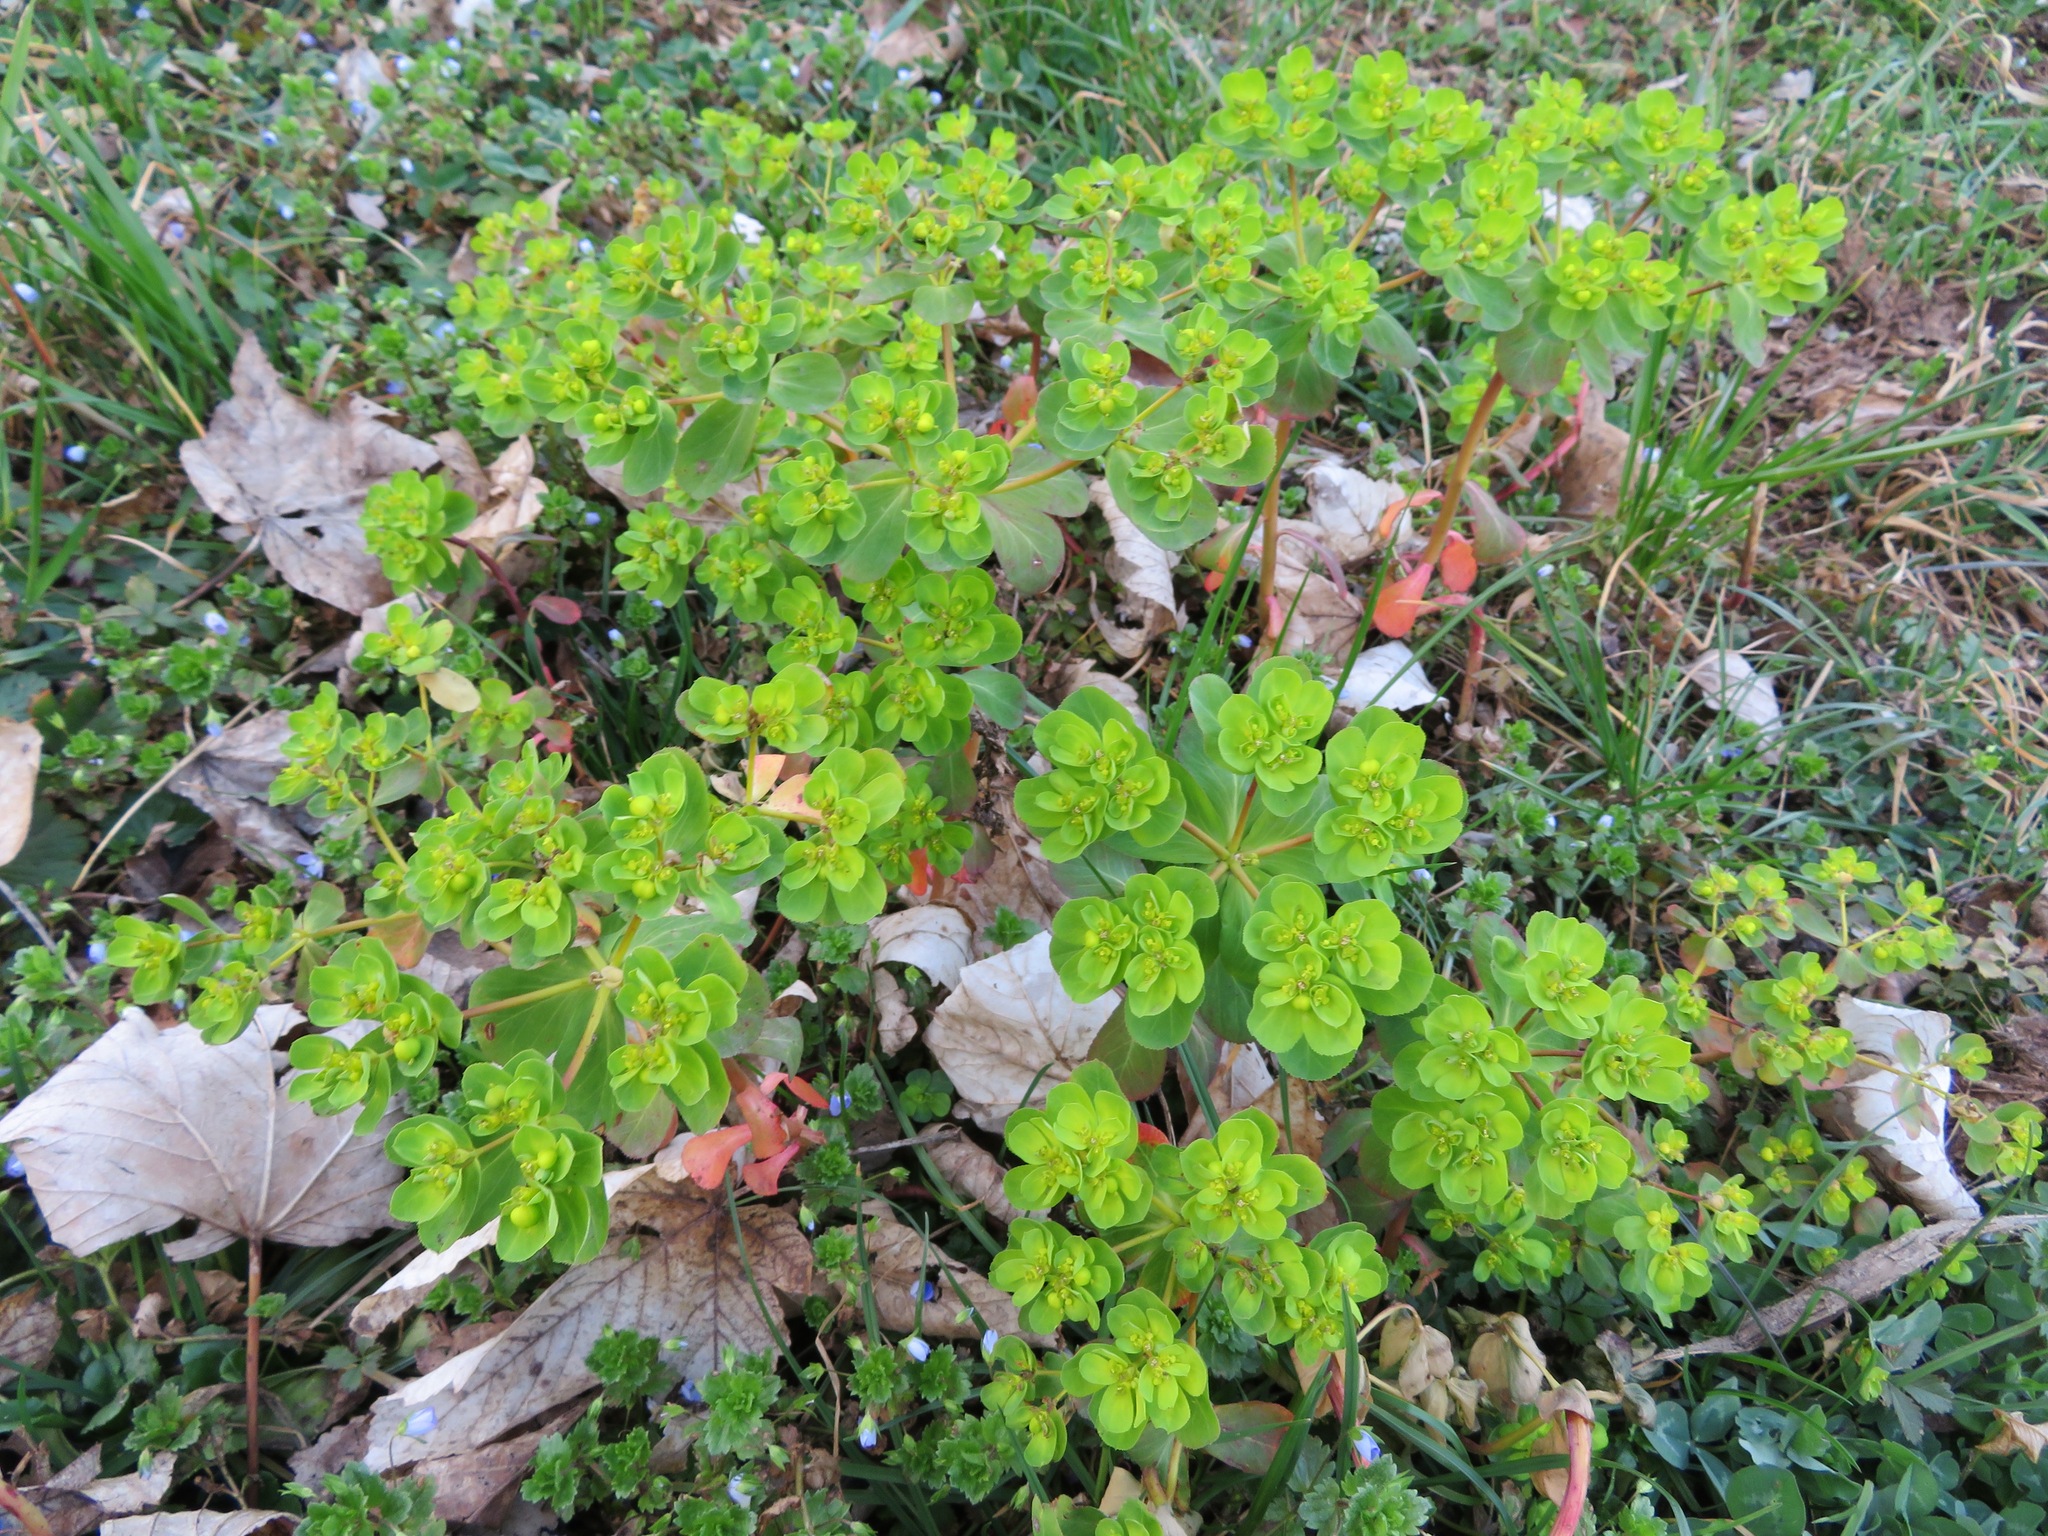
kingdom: Plantae
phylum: Tracheophyta
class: Magnoliopsida
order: Malpighiales
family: Euphorbiaceae
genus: Euphorbia
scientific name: Euphorbia helioscopia
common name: Sun spurge
